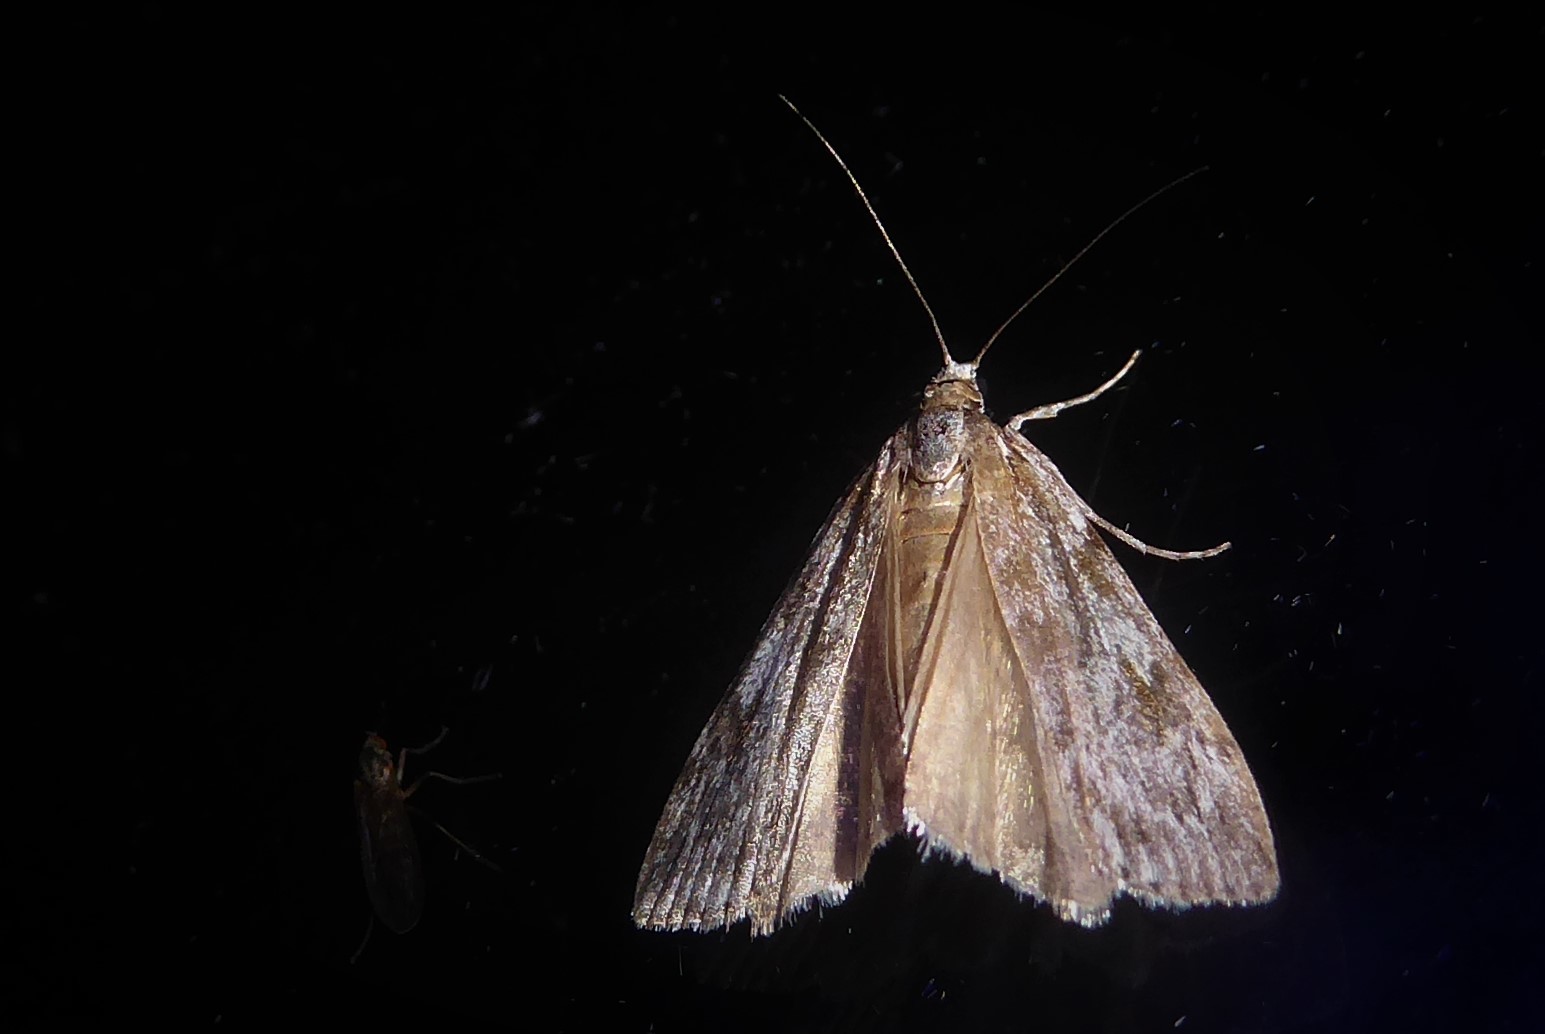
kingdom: Animalia
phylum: Arthropoda
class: Insecta
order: Lepidoptera
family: Crambidae
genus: Scoparia
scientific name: Scoparia halopis
